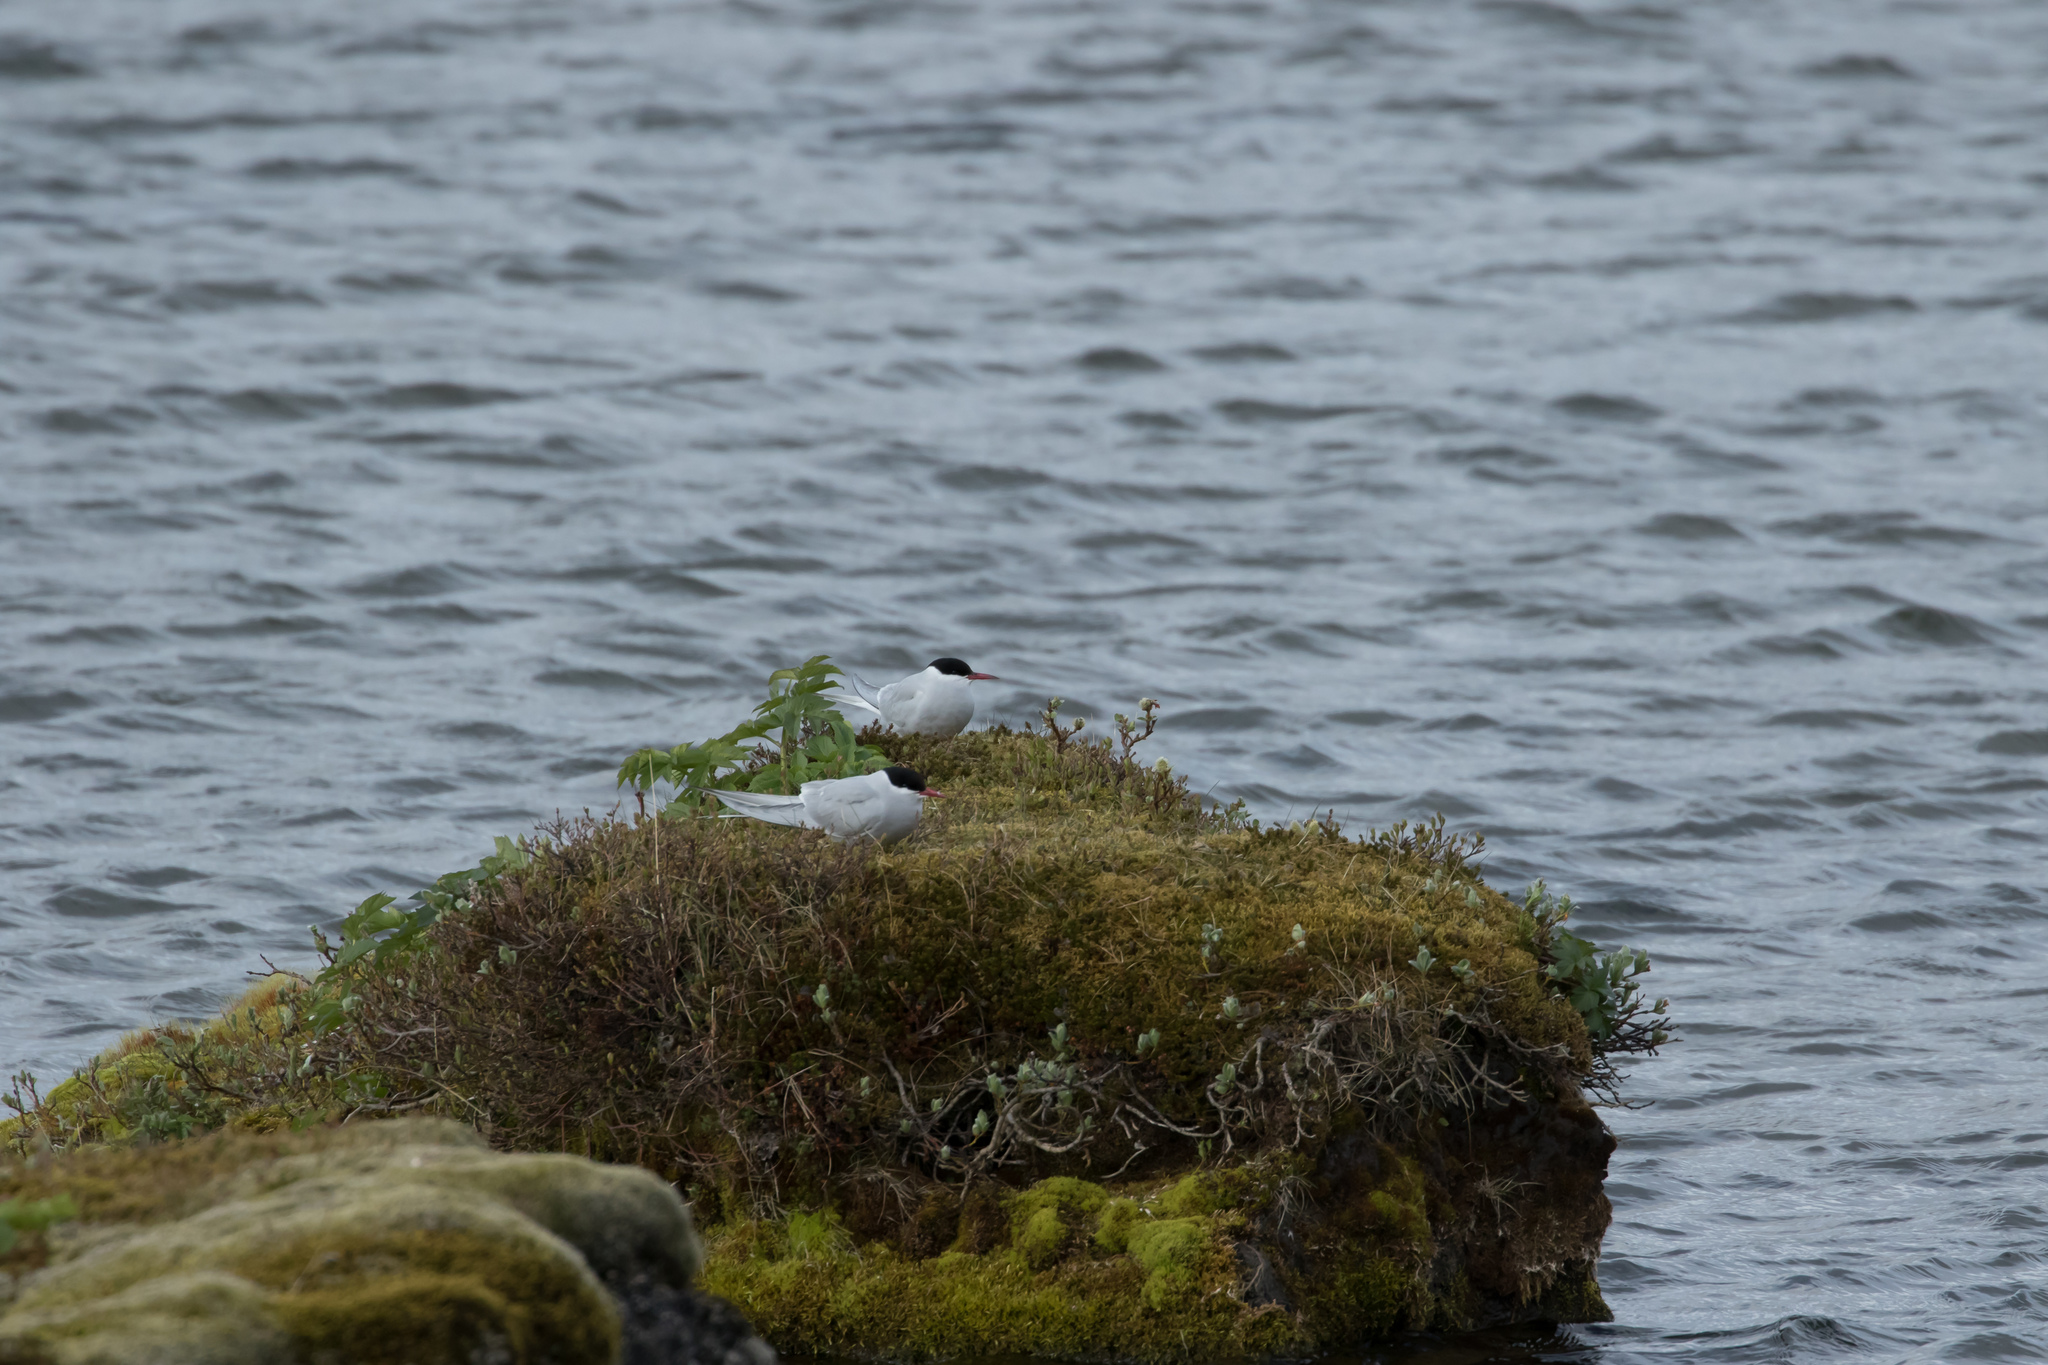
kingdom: Animalia
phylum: Chordata
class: Aves
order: Charadriiformes
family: Laridae
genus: Sterna
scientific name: Sterna paradisaea
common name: Arctic tern
